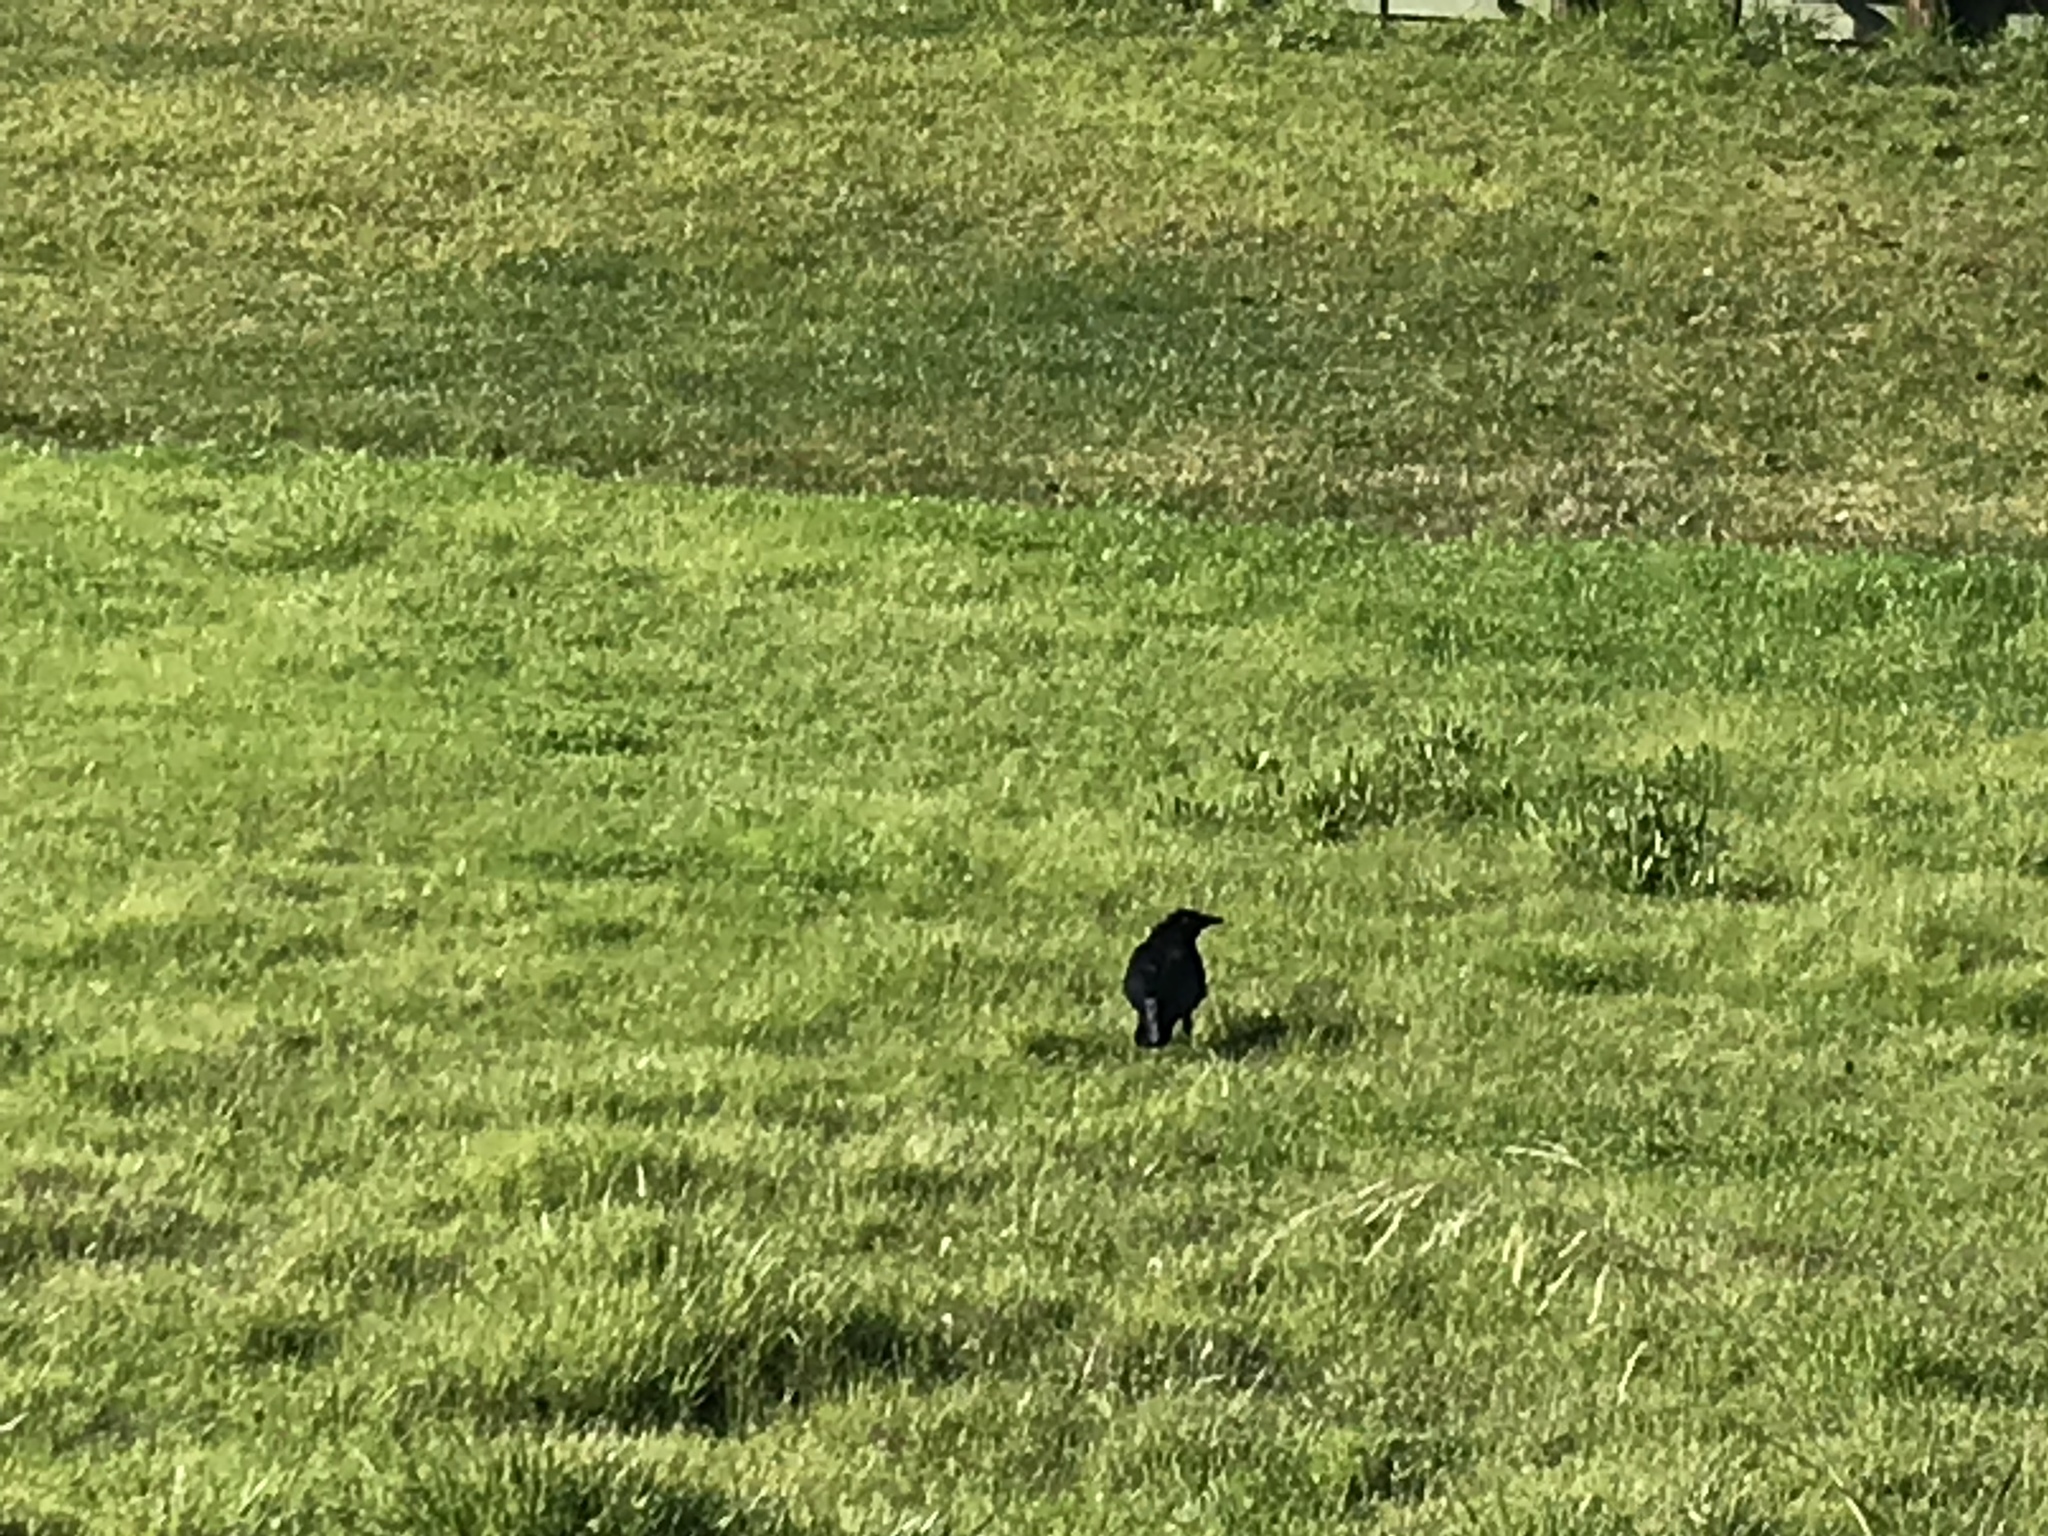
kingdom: Animalia
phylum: Chordata
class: Aves
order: Passeriformes
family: Corvidae
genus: Corvus
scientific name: Corvus brachyrhynchos
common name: American crow
